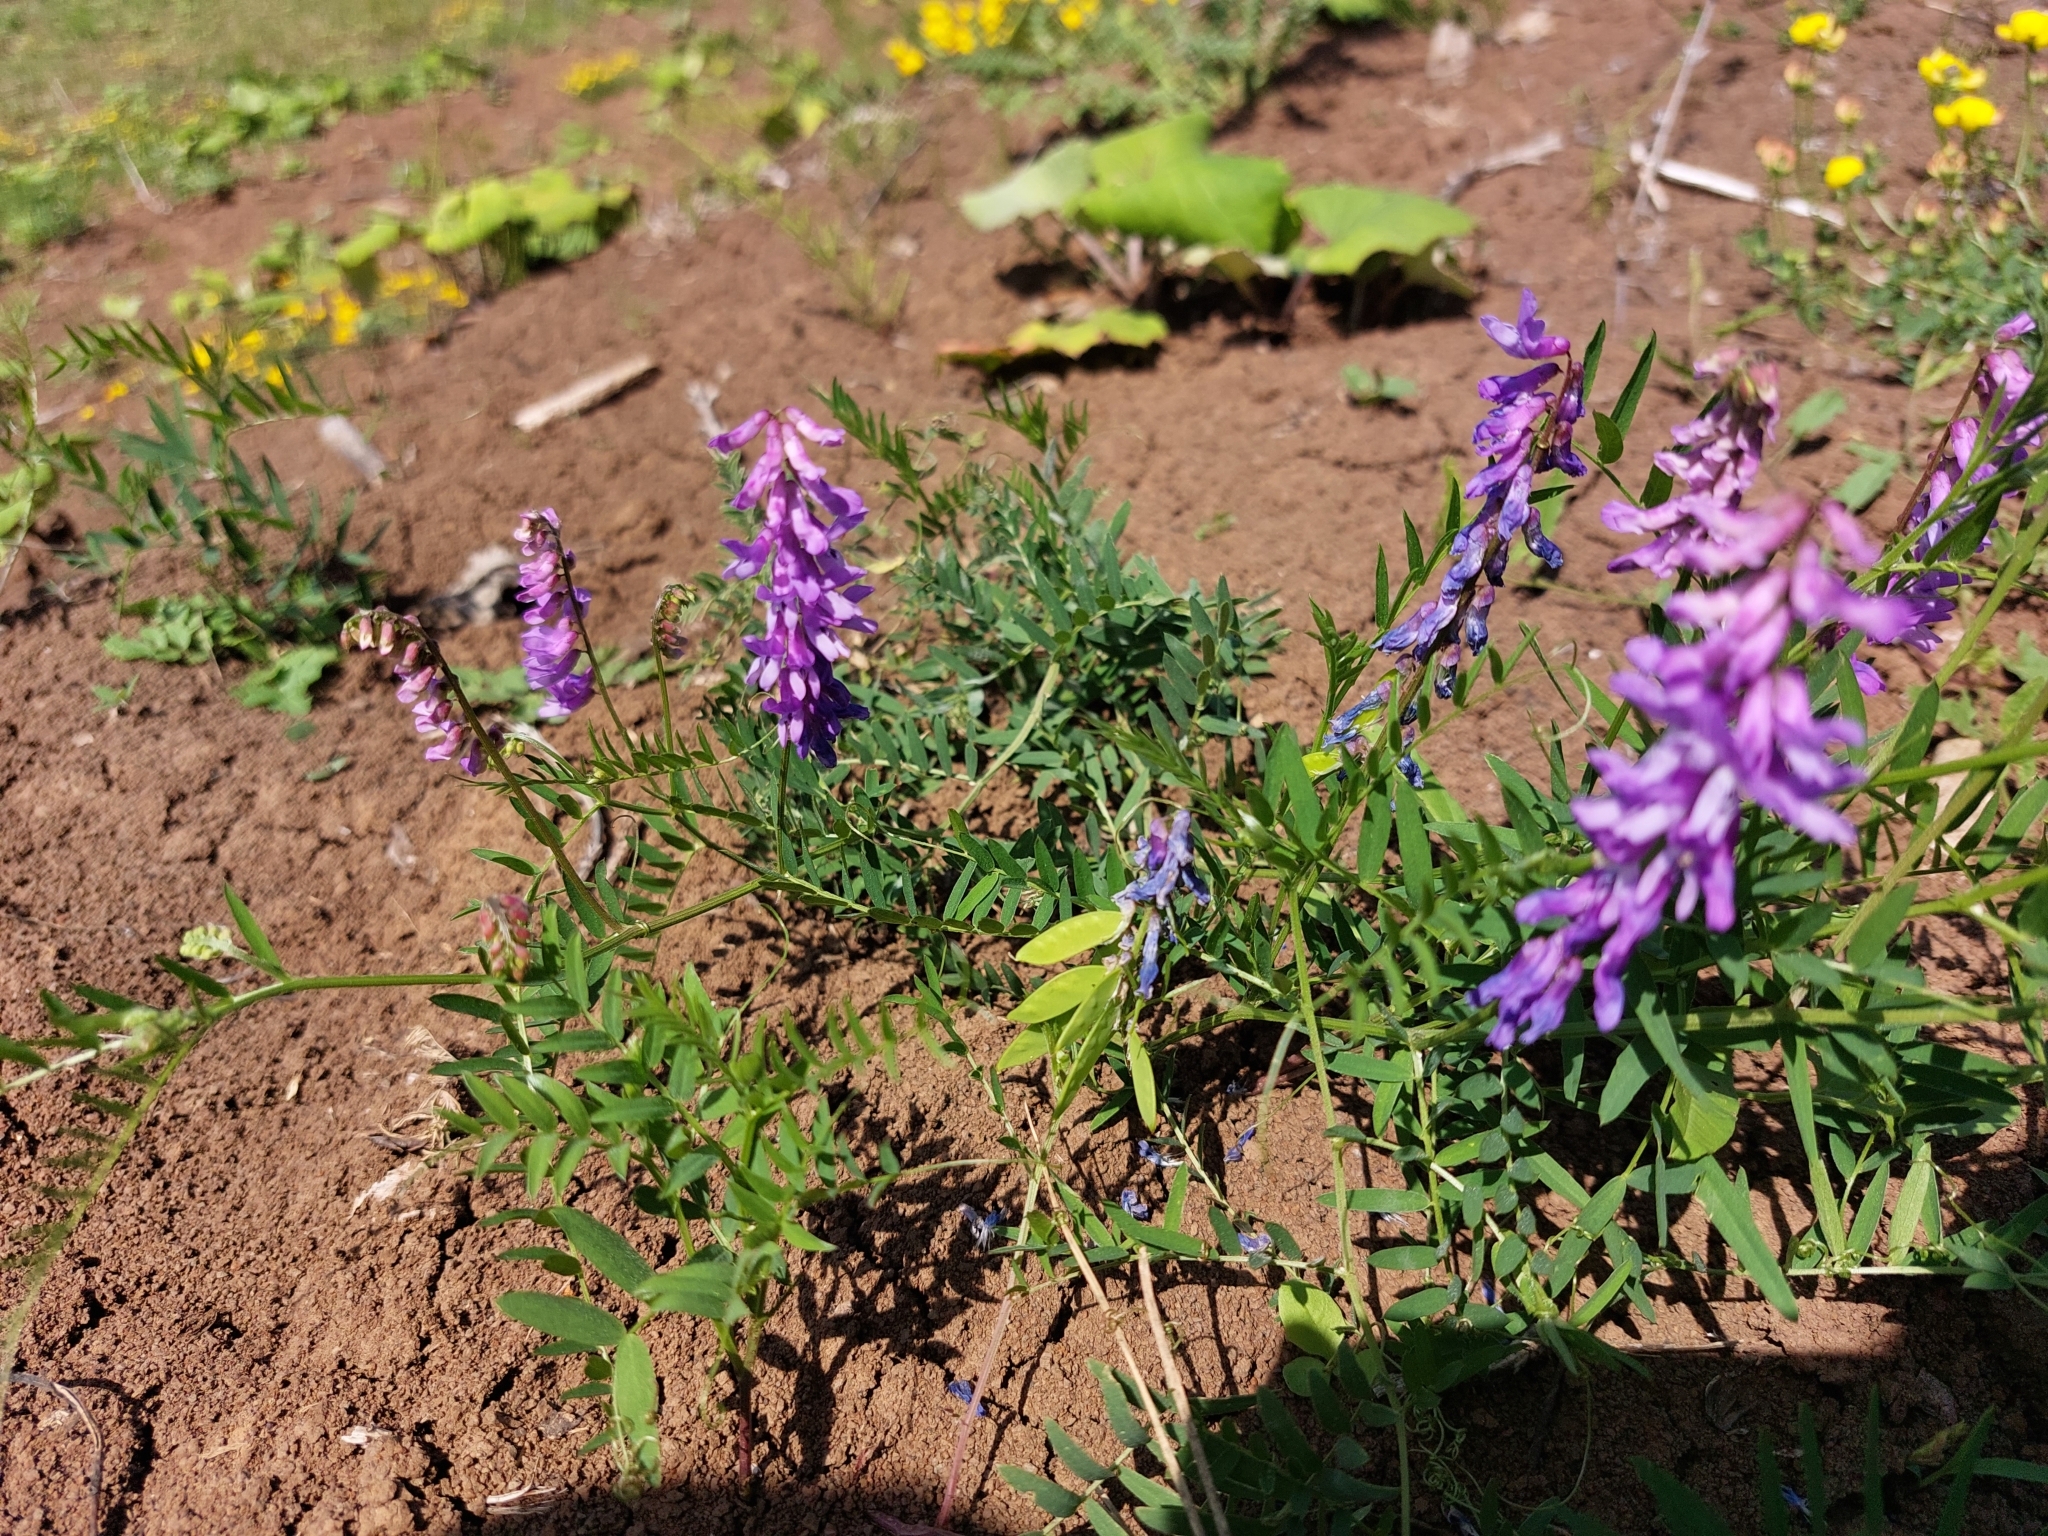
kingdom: Plantae
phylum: Tracheophyta
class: Magnoliopsida
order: Fabales
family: Fabaceae
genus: Vicia
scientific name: Vicia cracca
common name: Bird vetch
